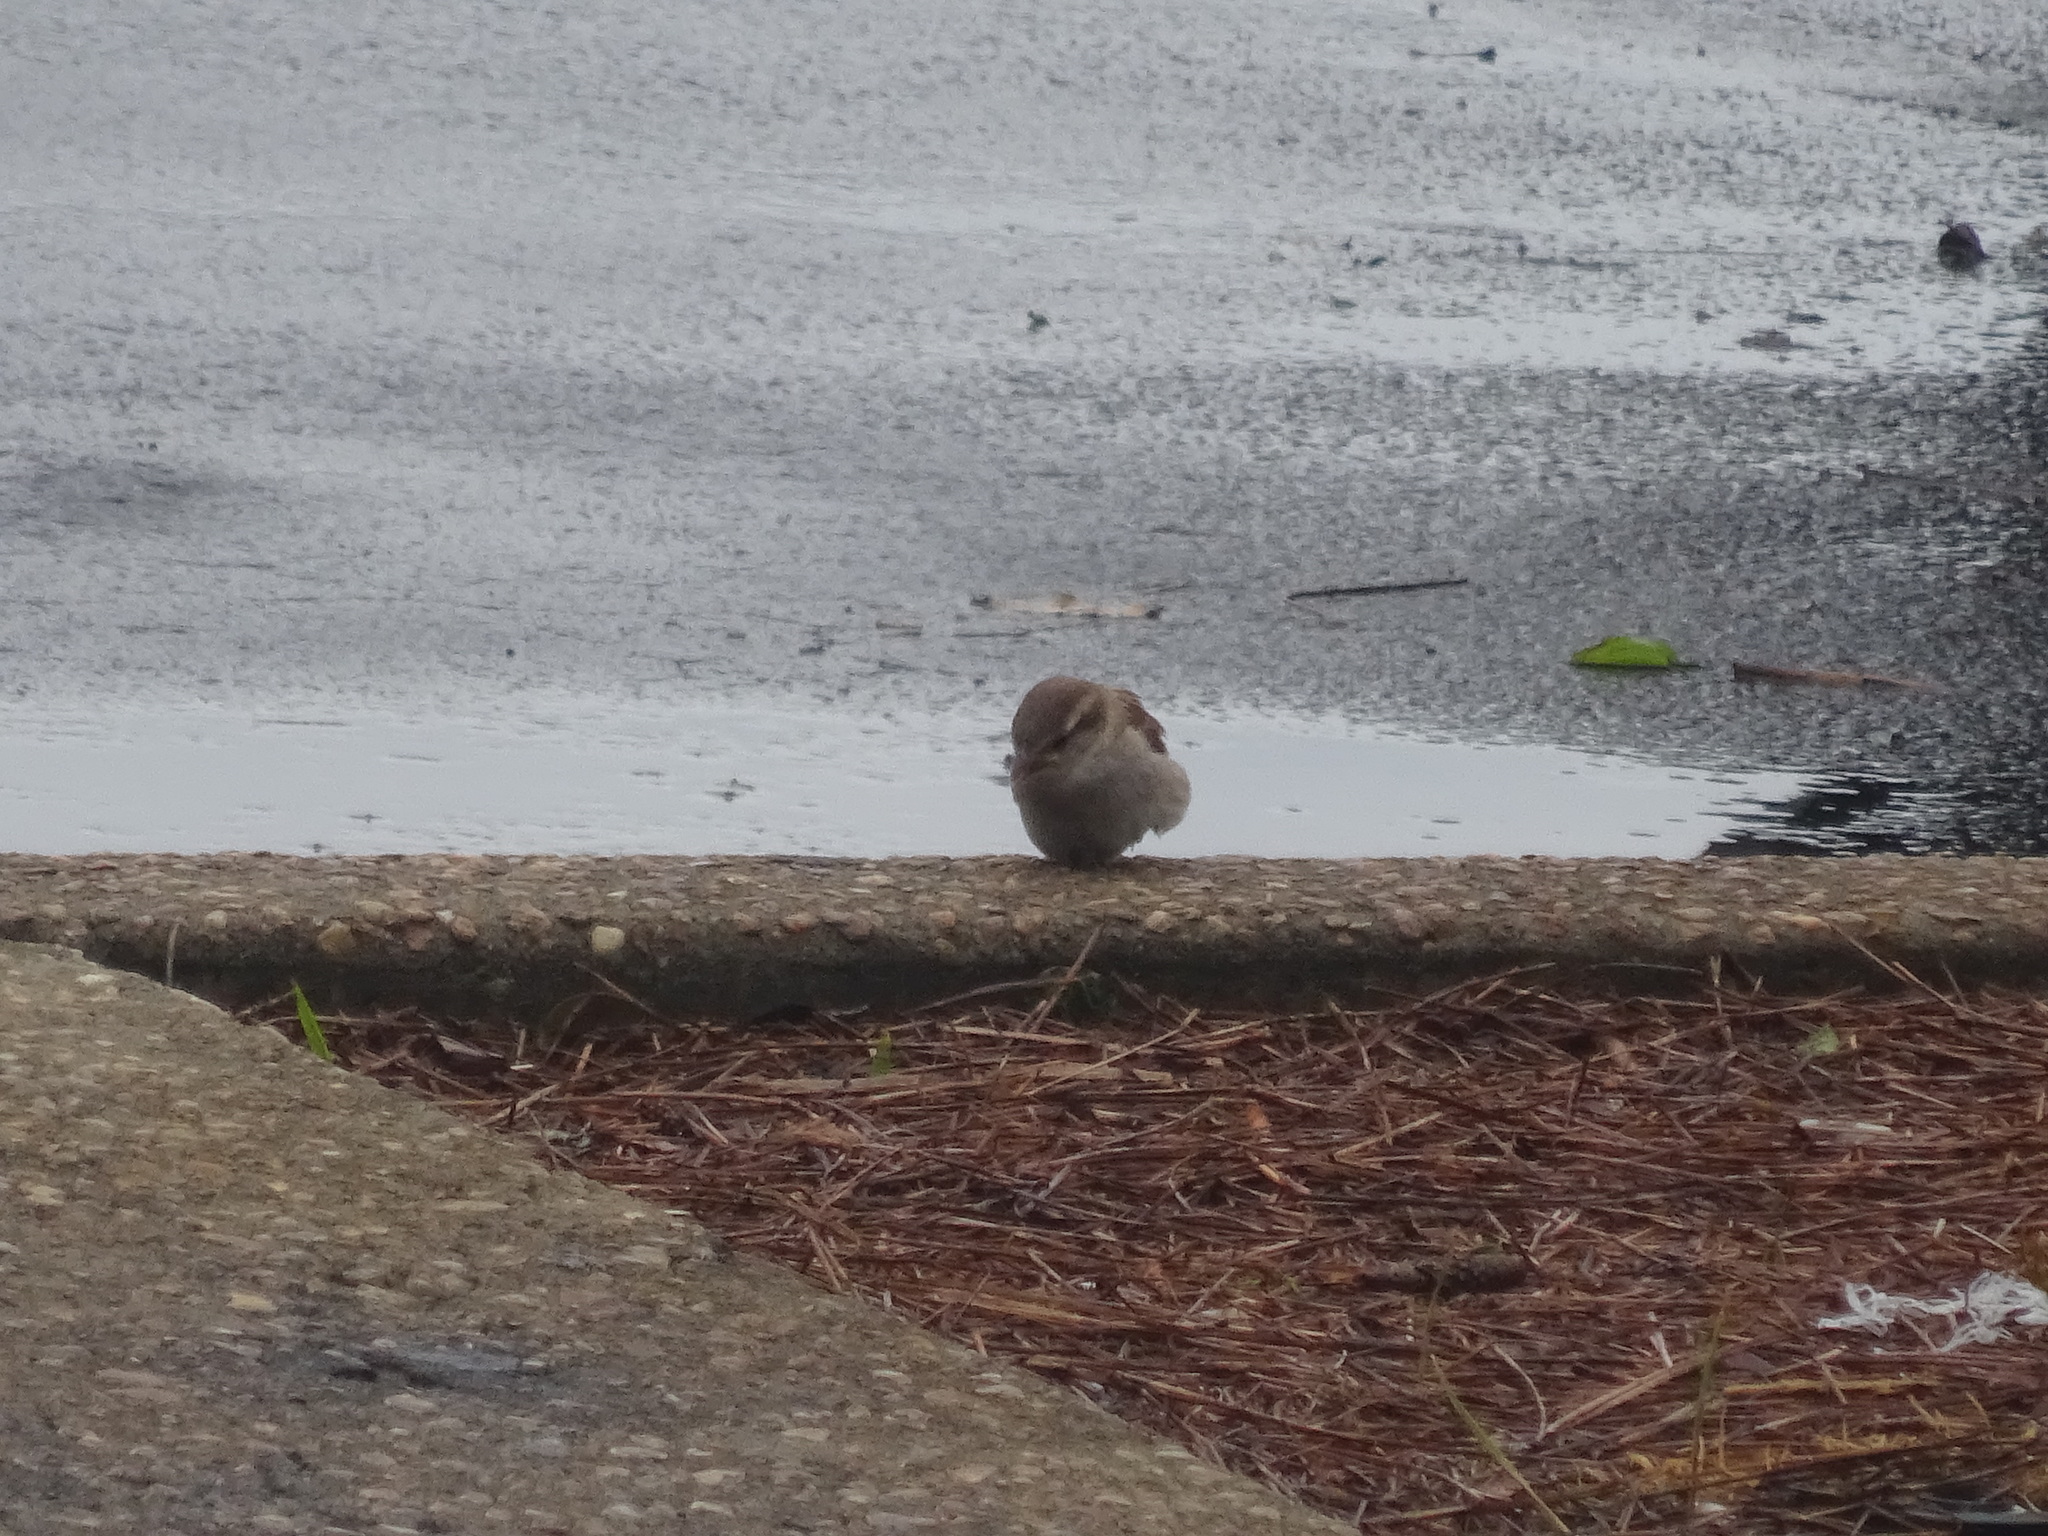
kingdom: Animalia
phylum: Chordata
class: Aves
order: Passeriformes
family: Passeridae
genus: Passer
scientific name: Passer domesticus
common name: House sparrow
